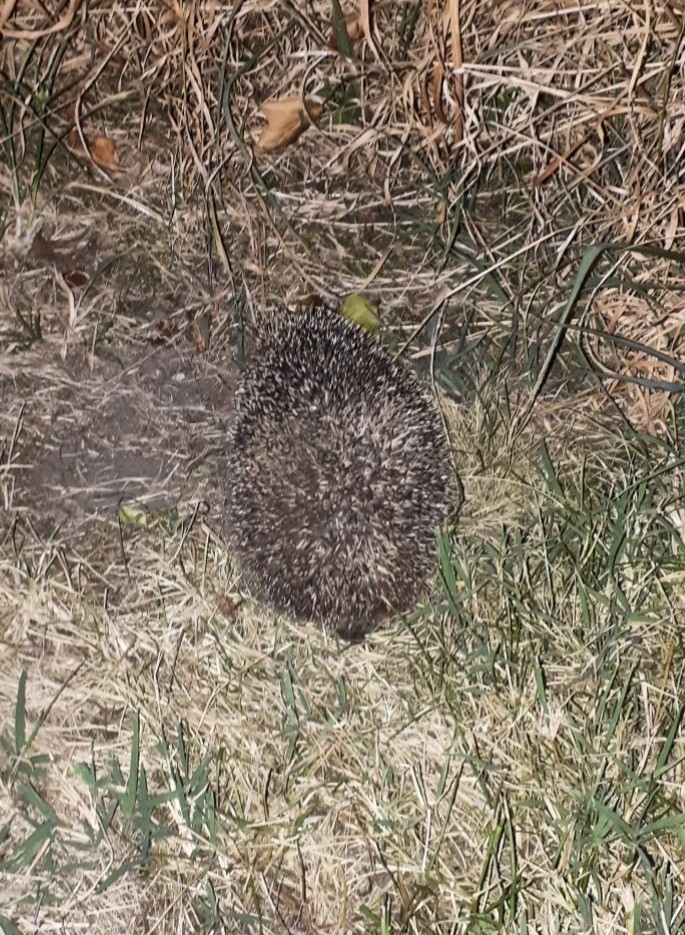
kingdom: Animalia
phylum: Chordata
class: Mammalia
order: Erinaceomorpha
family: Erinaceidae
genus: Erinaceus
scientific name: Erinaceus europaeus
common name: West european hedgehog
